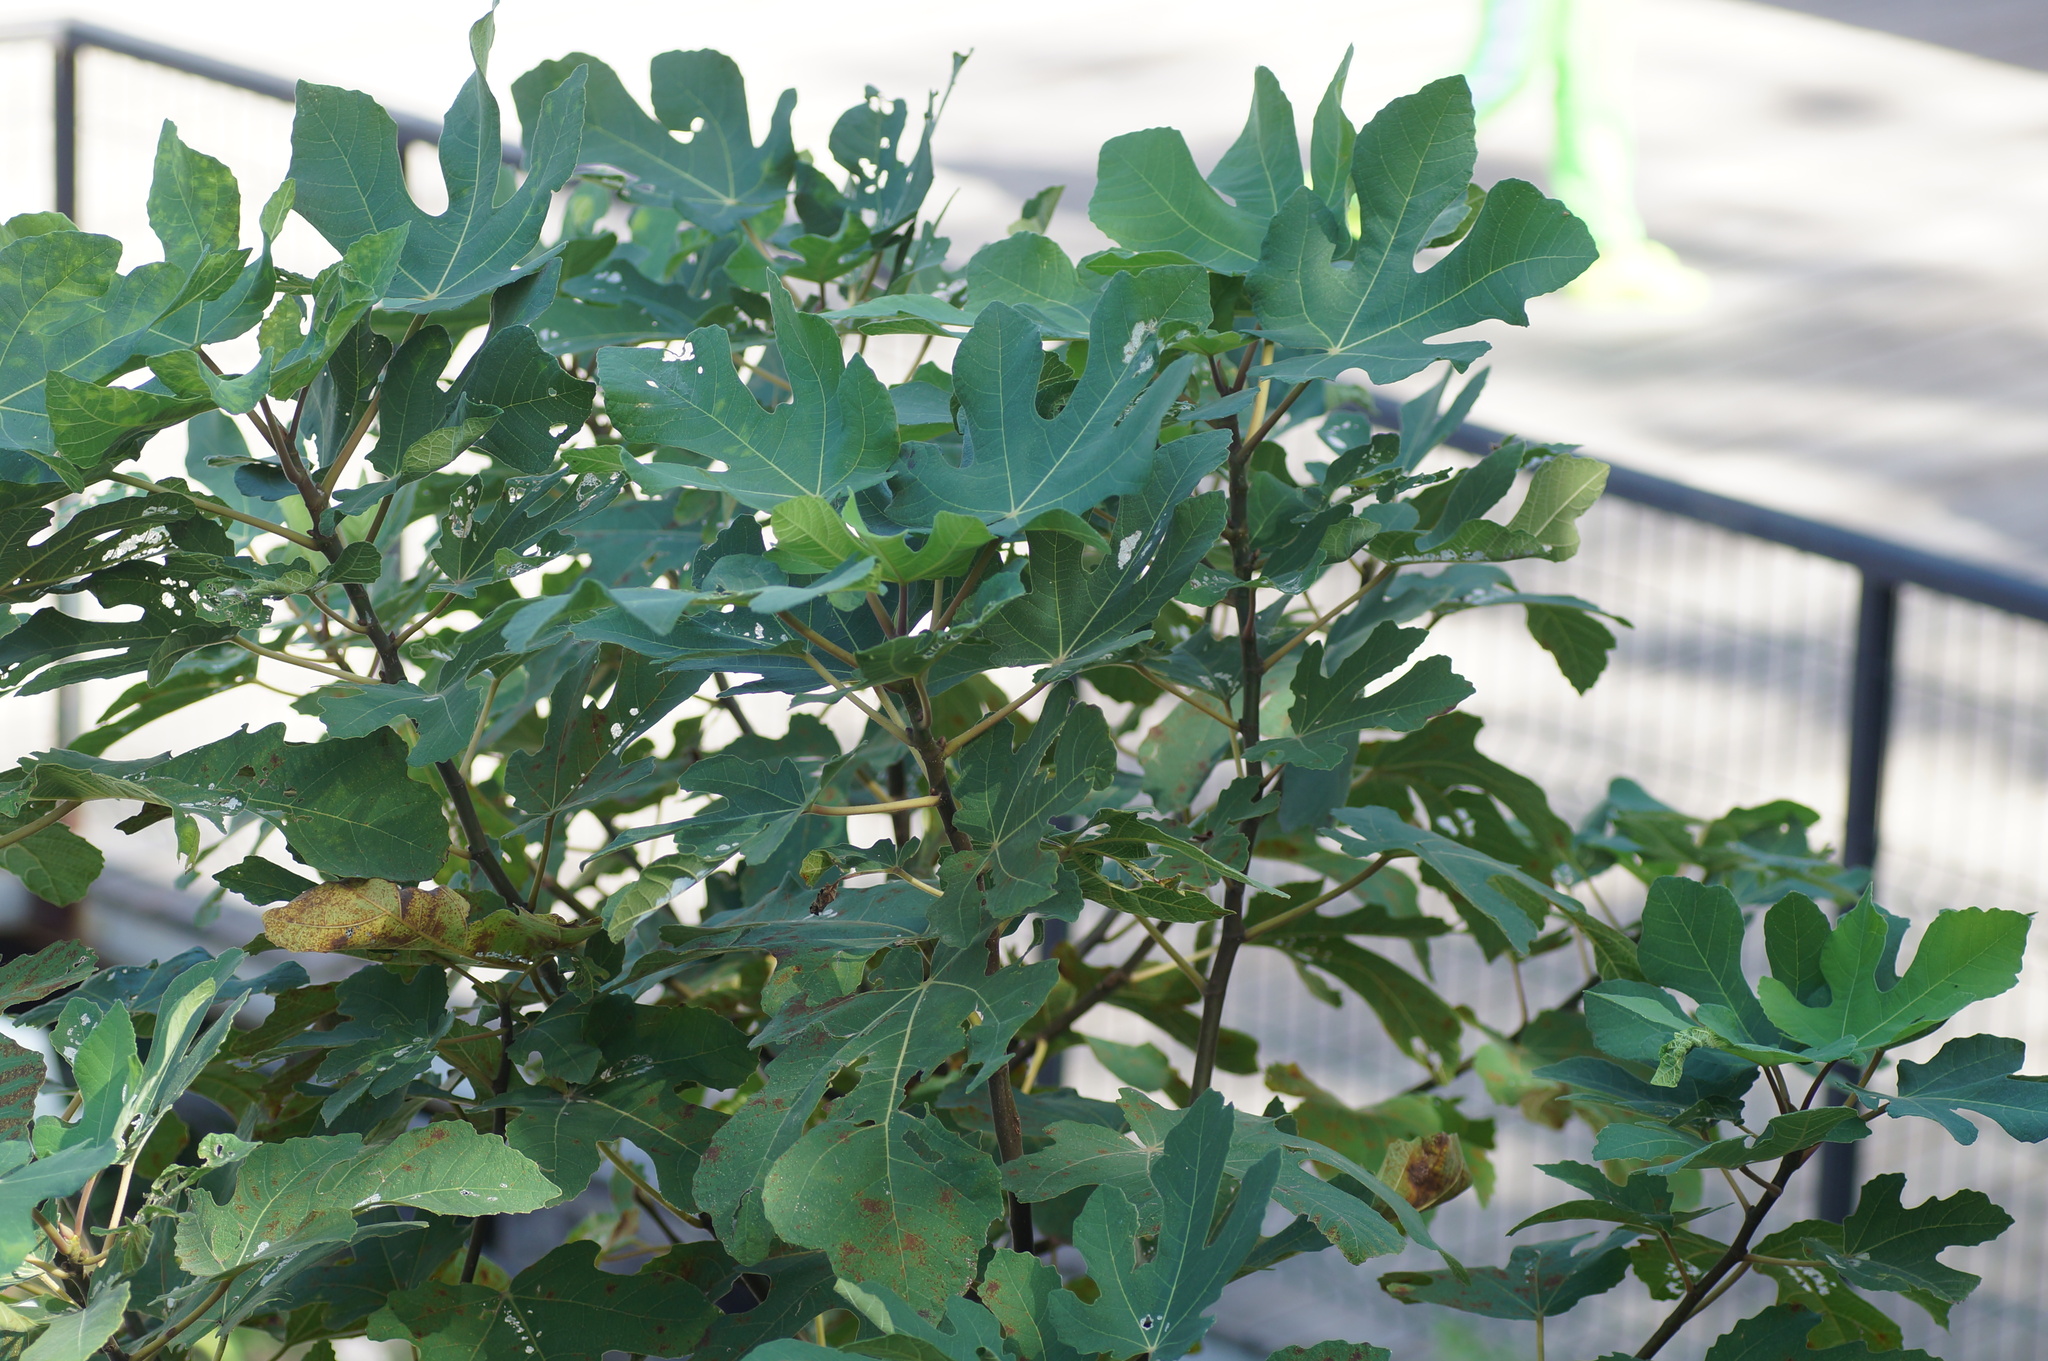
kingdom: Plantae
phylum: Tracheophyta
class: Magnoliopsida
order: Rosales
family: Moraceae
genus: Ficus
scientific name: Ficus carica
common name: Fig
